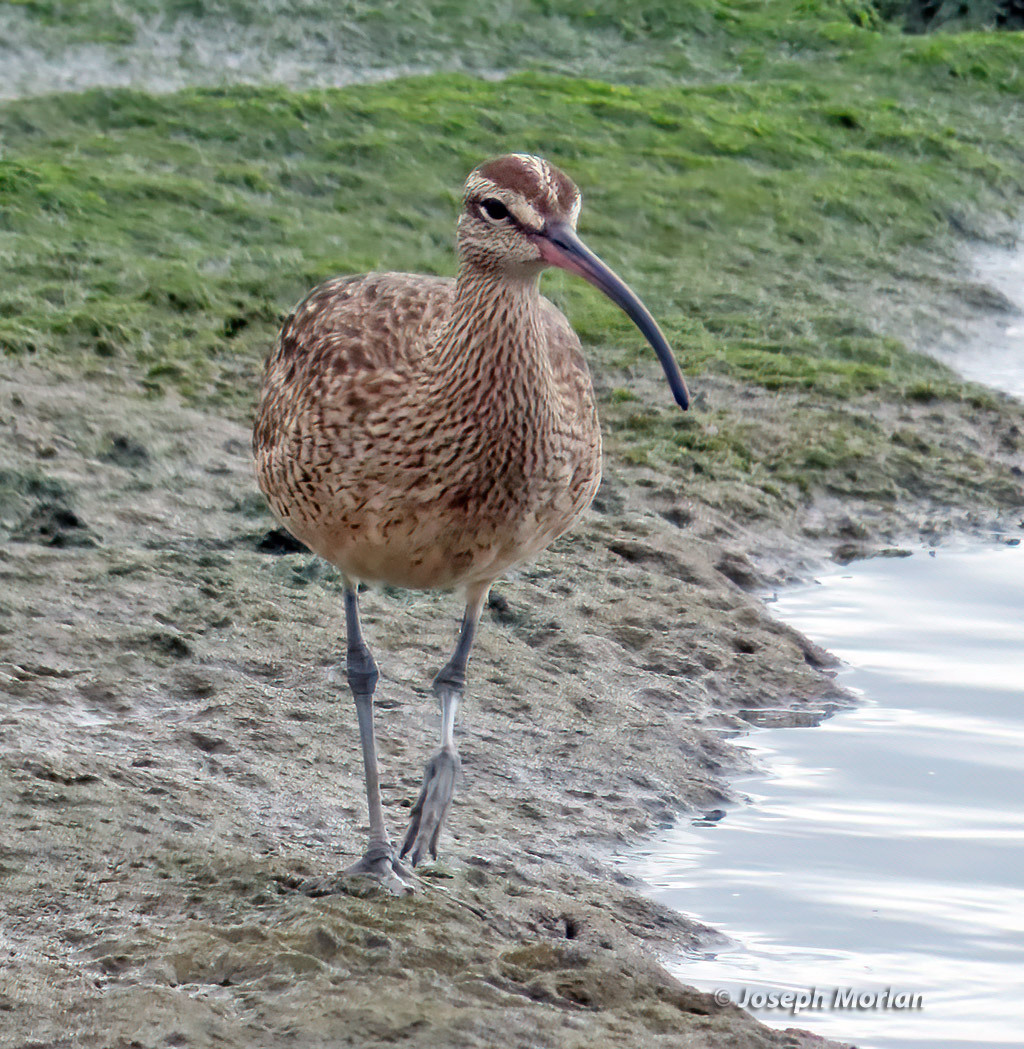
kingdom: Animalia
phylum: Chordata
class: Aves
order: Charadriiformes
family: Scolopacidae
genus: Numenius
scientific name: Numenius phaeopus
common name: Whimbrel
